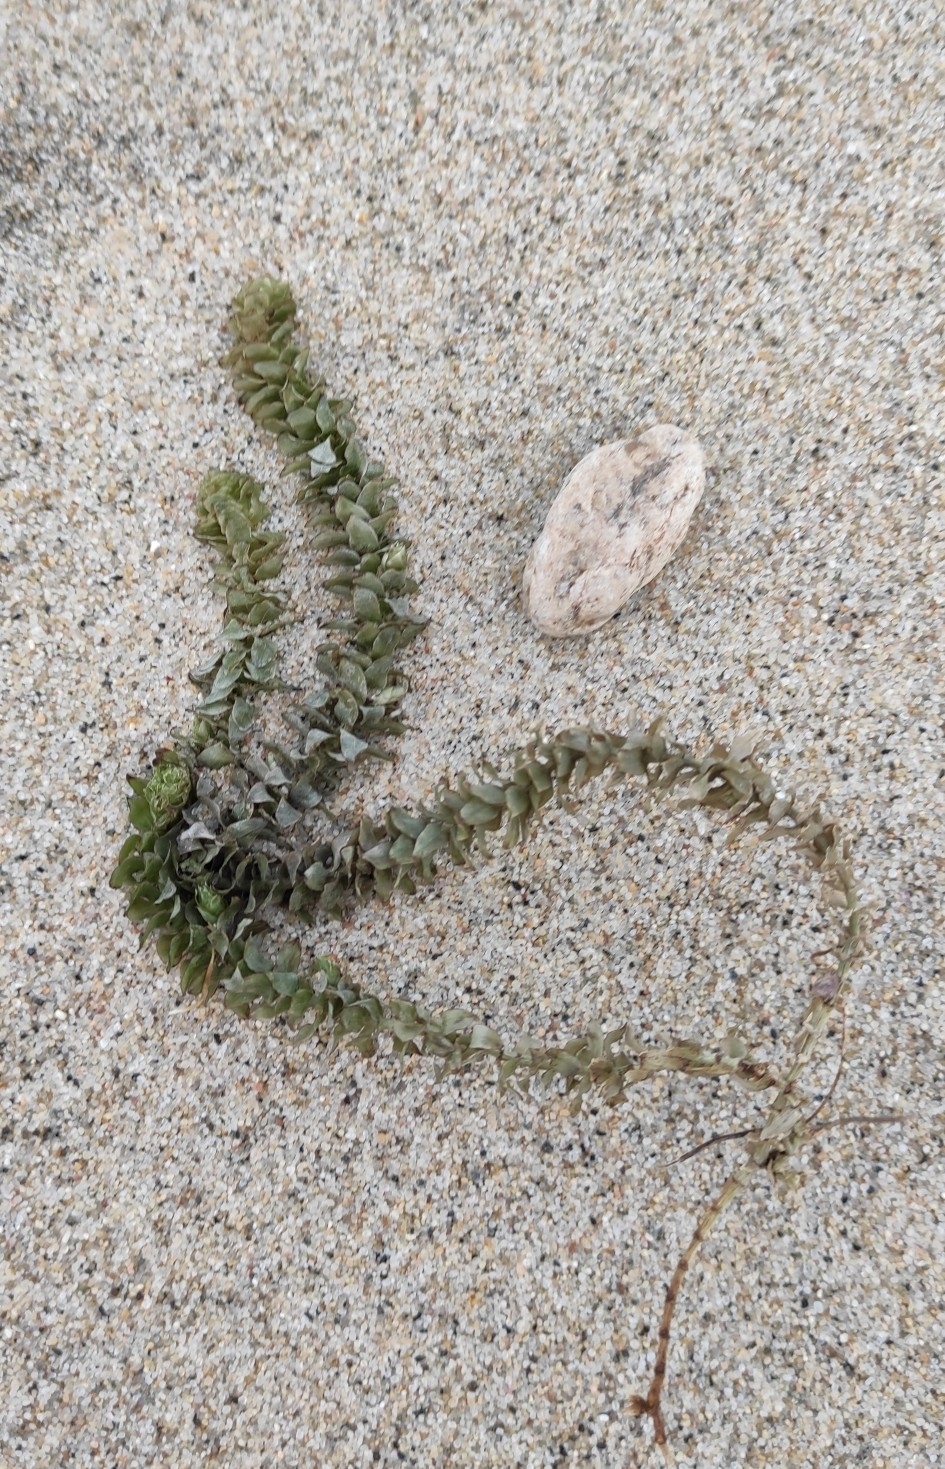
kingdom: Plantae
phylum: Tracheophyta
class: Liliopsida
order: Alismatales
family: Hydrocharitaceae
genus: Elodea
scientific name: Elodea canadensis
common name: Canadian waterweed
